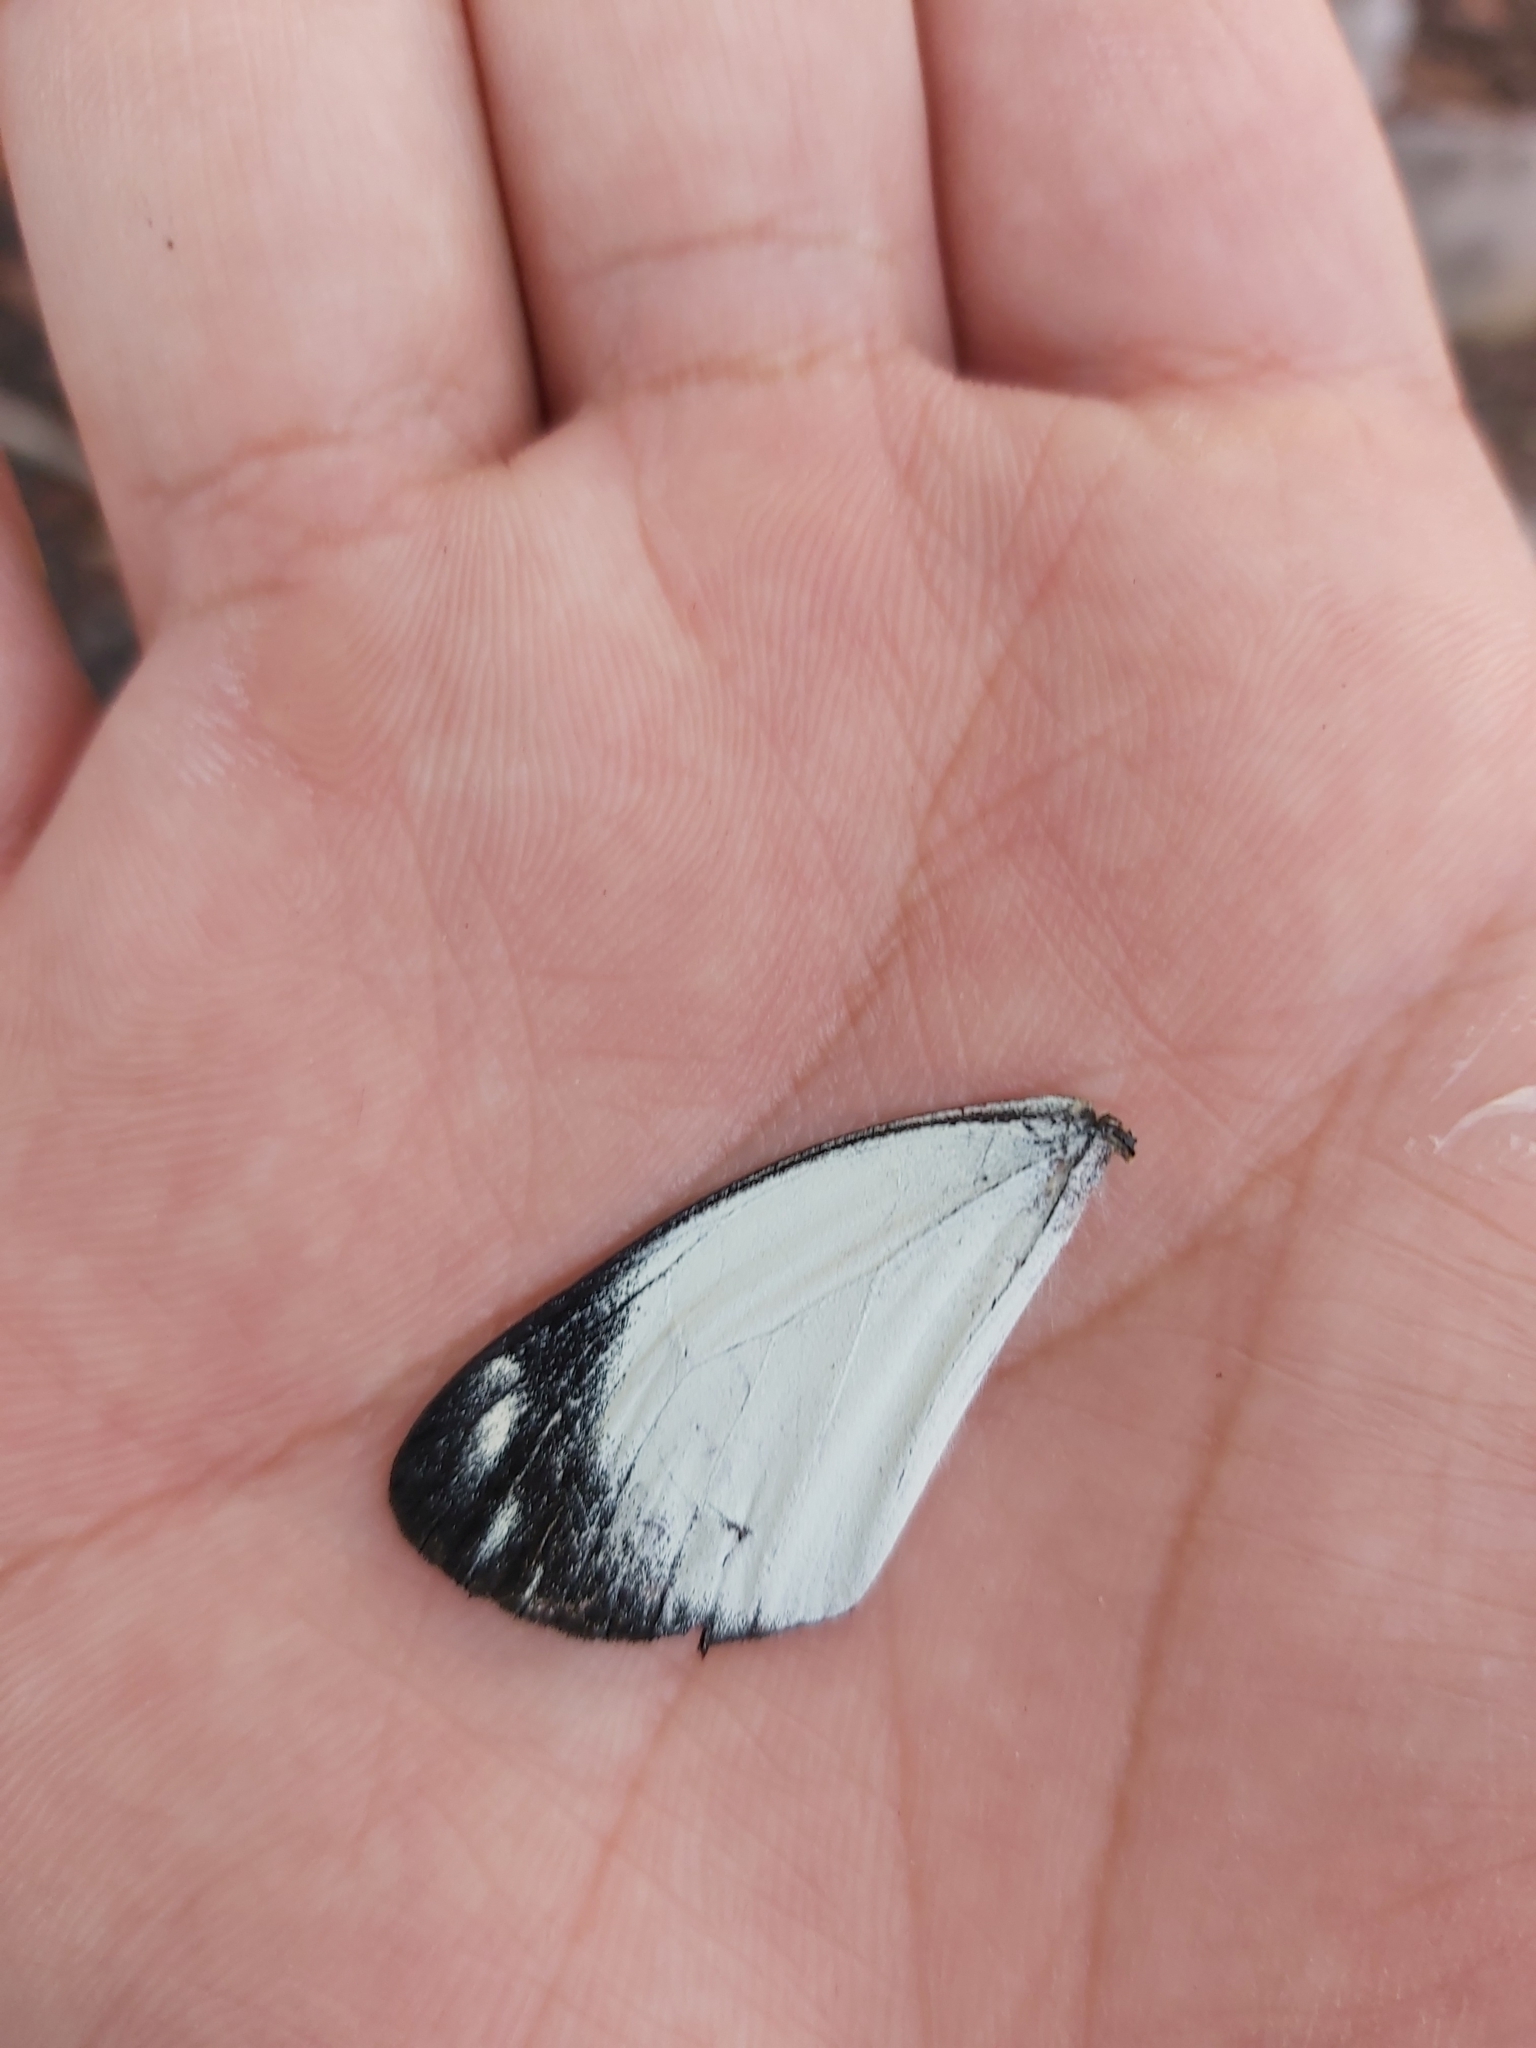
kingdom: Animalia
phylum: Arthropoda
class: Insecta
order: Lepidoptera
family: Pieridae
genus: Delias
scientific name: Delias nigrina
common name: Black jezebel
